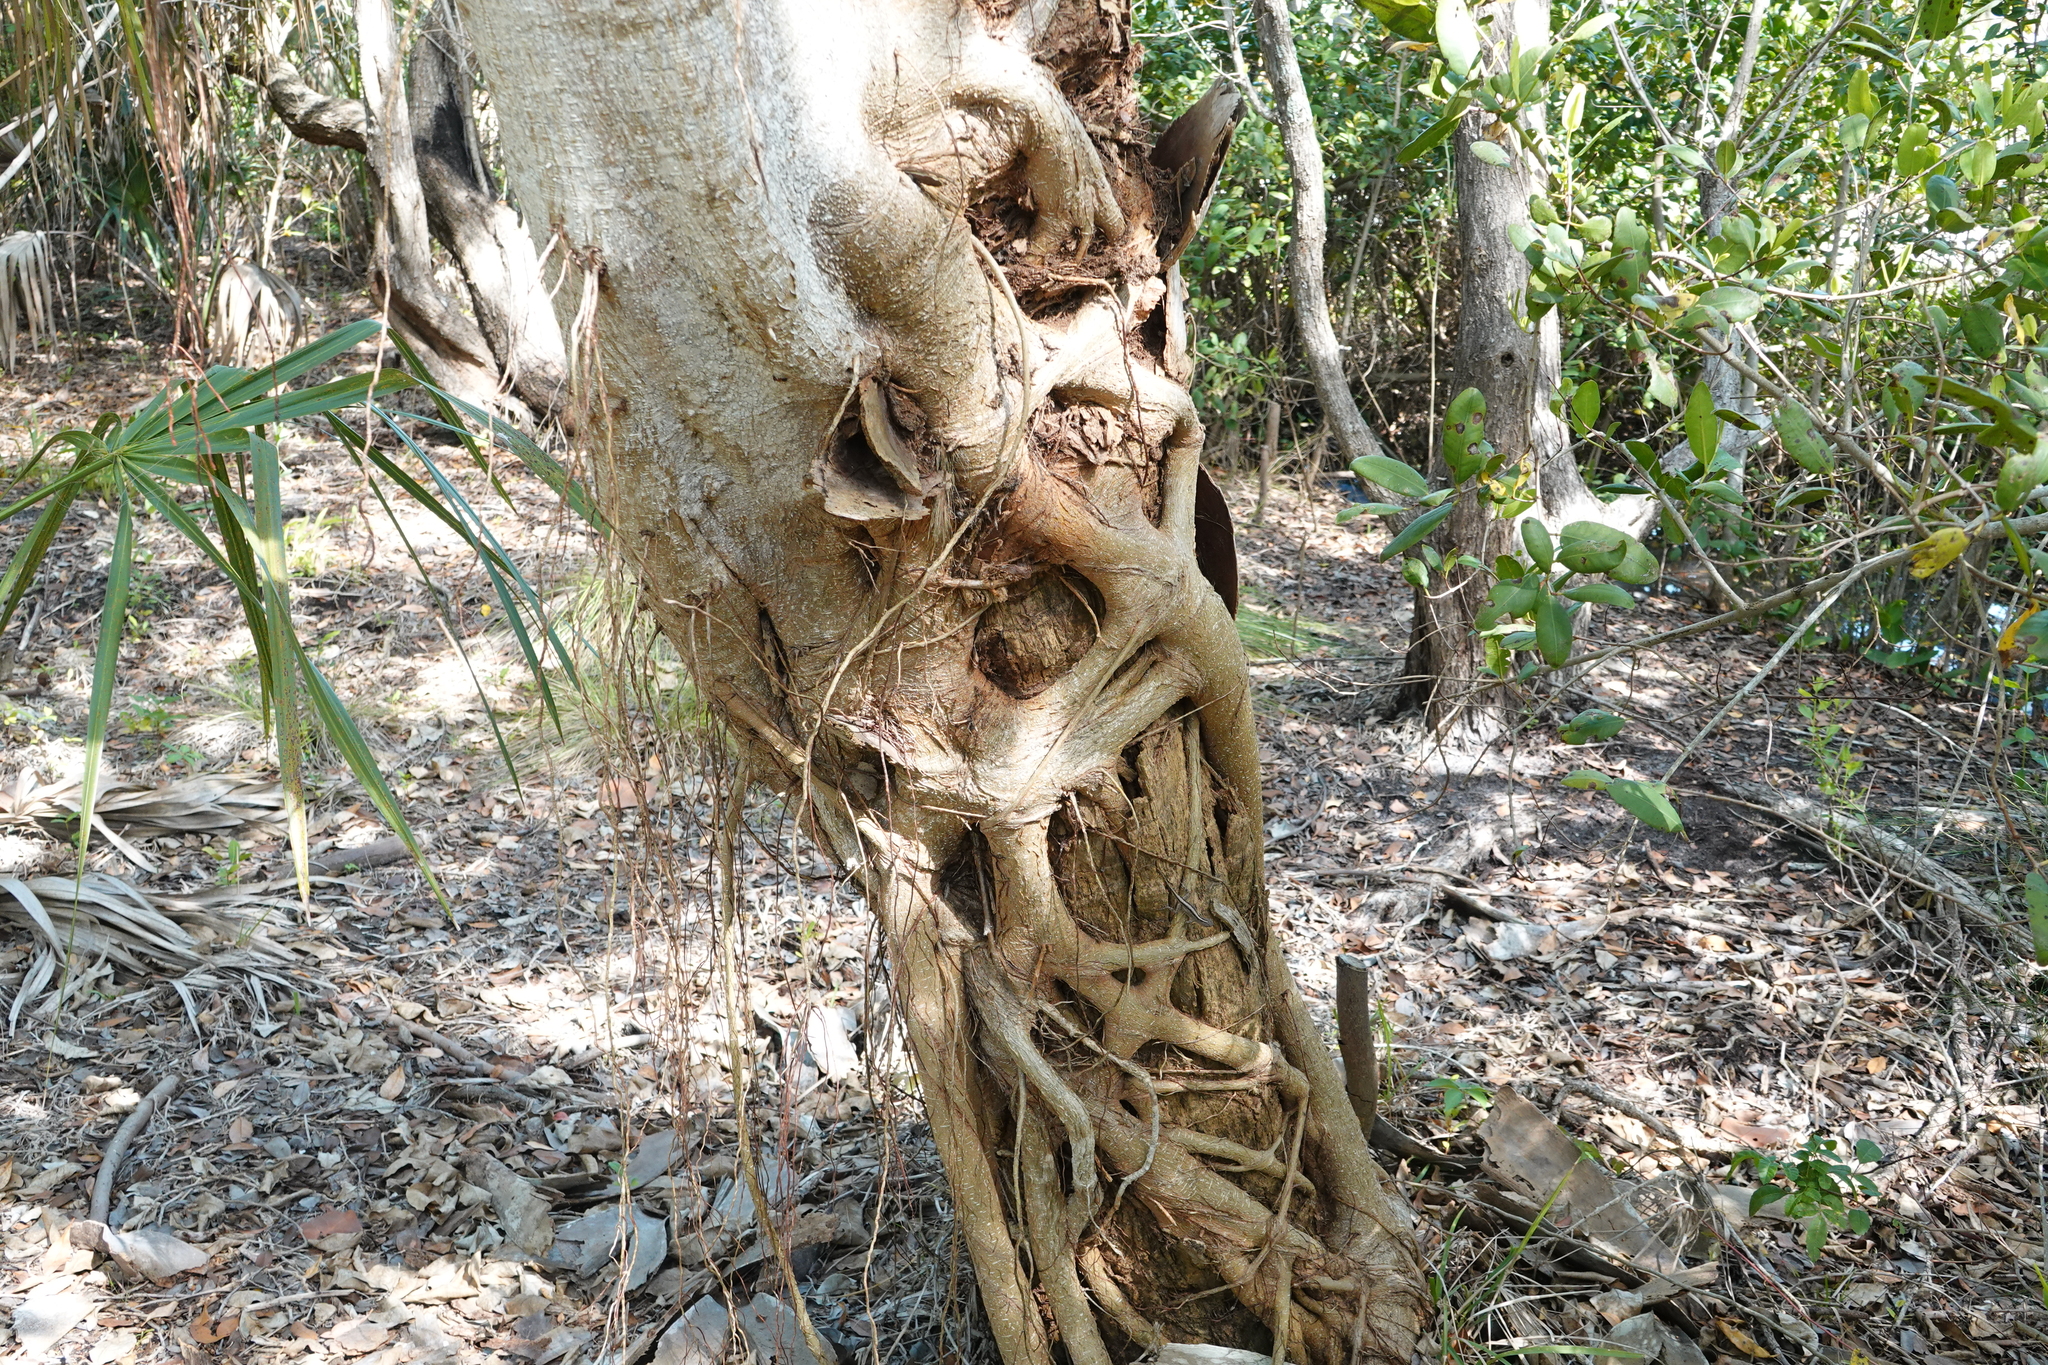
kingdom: Plantae
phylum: Tracheophyta
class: Magnoliopsida
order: Rosales
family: Moraceae
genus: Ficus
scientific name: Ficus aurea
